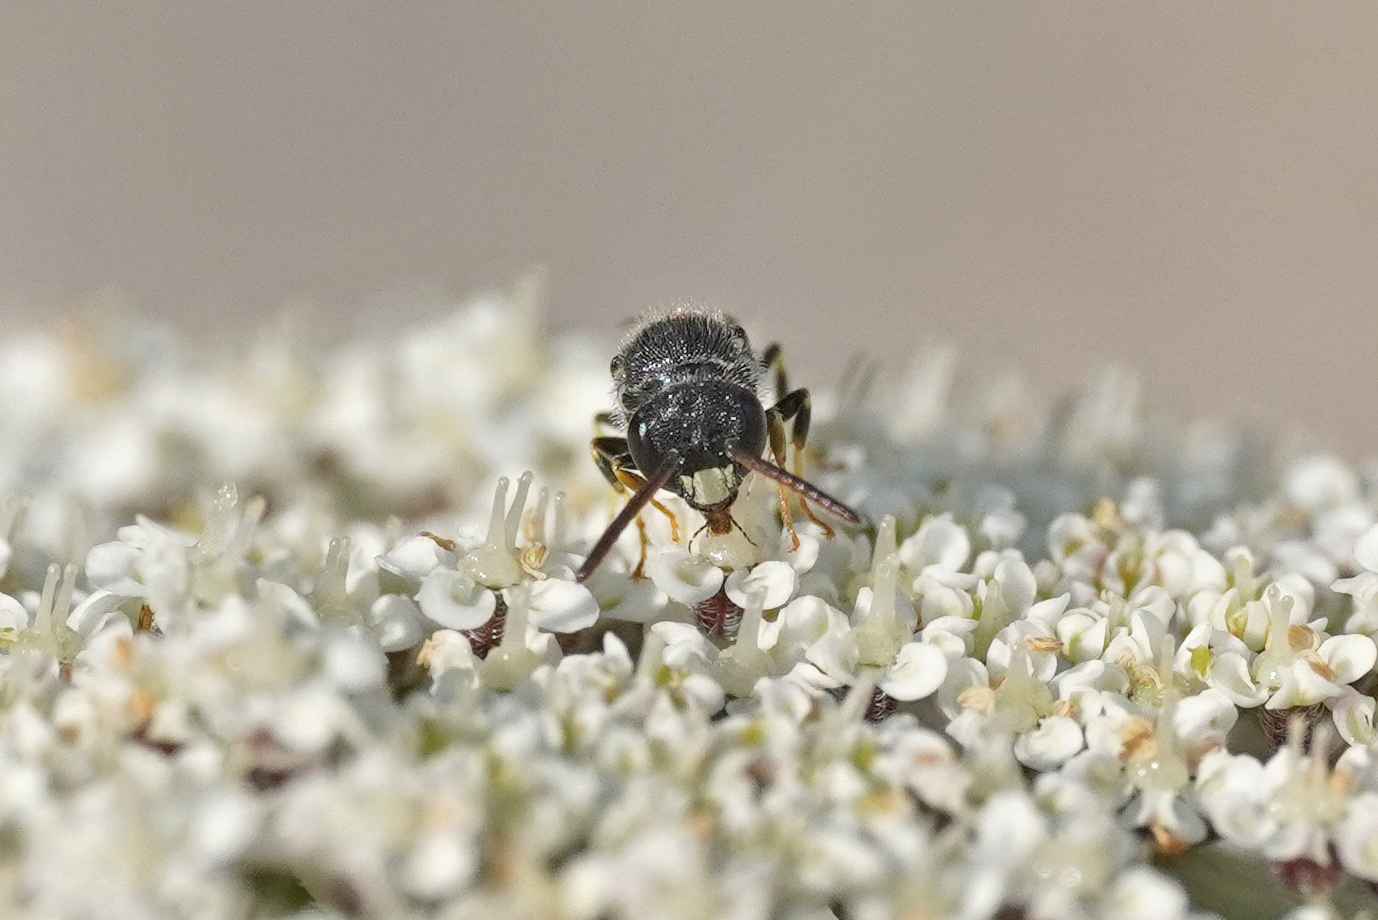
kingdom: Animalia
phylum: Arthropoda
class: Insecta
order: Hymenoptera
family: Colletidae
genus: Hylaeus
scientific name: Hylaeus punctatus
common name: Punctate masked bee
